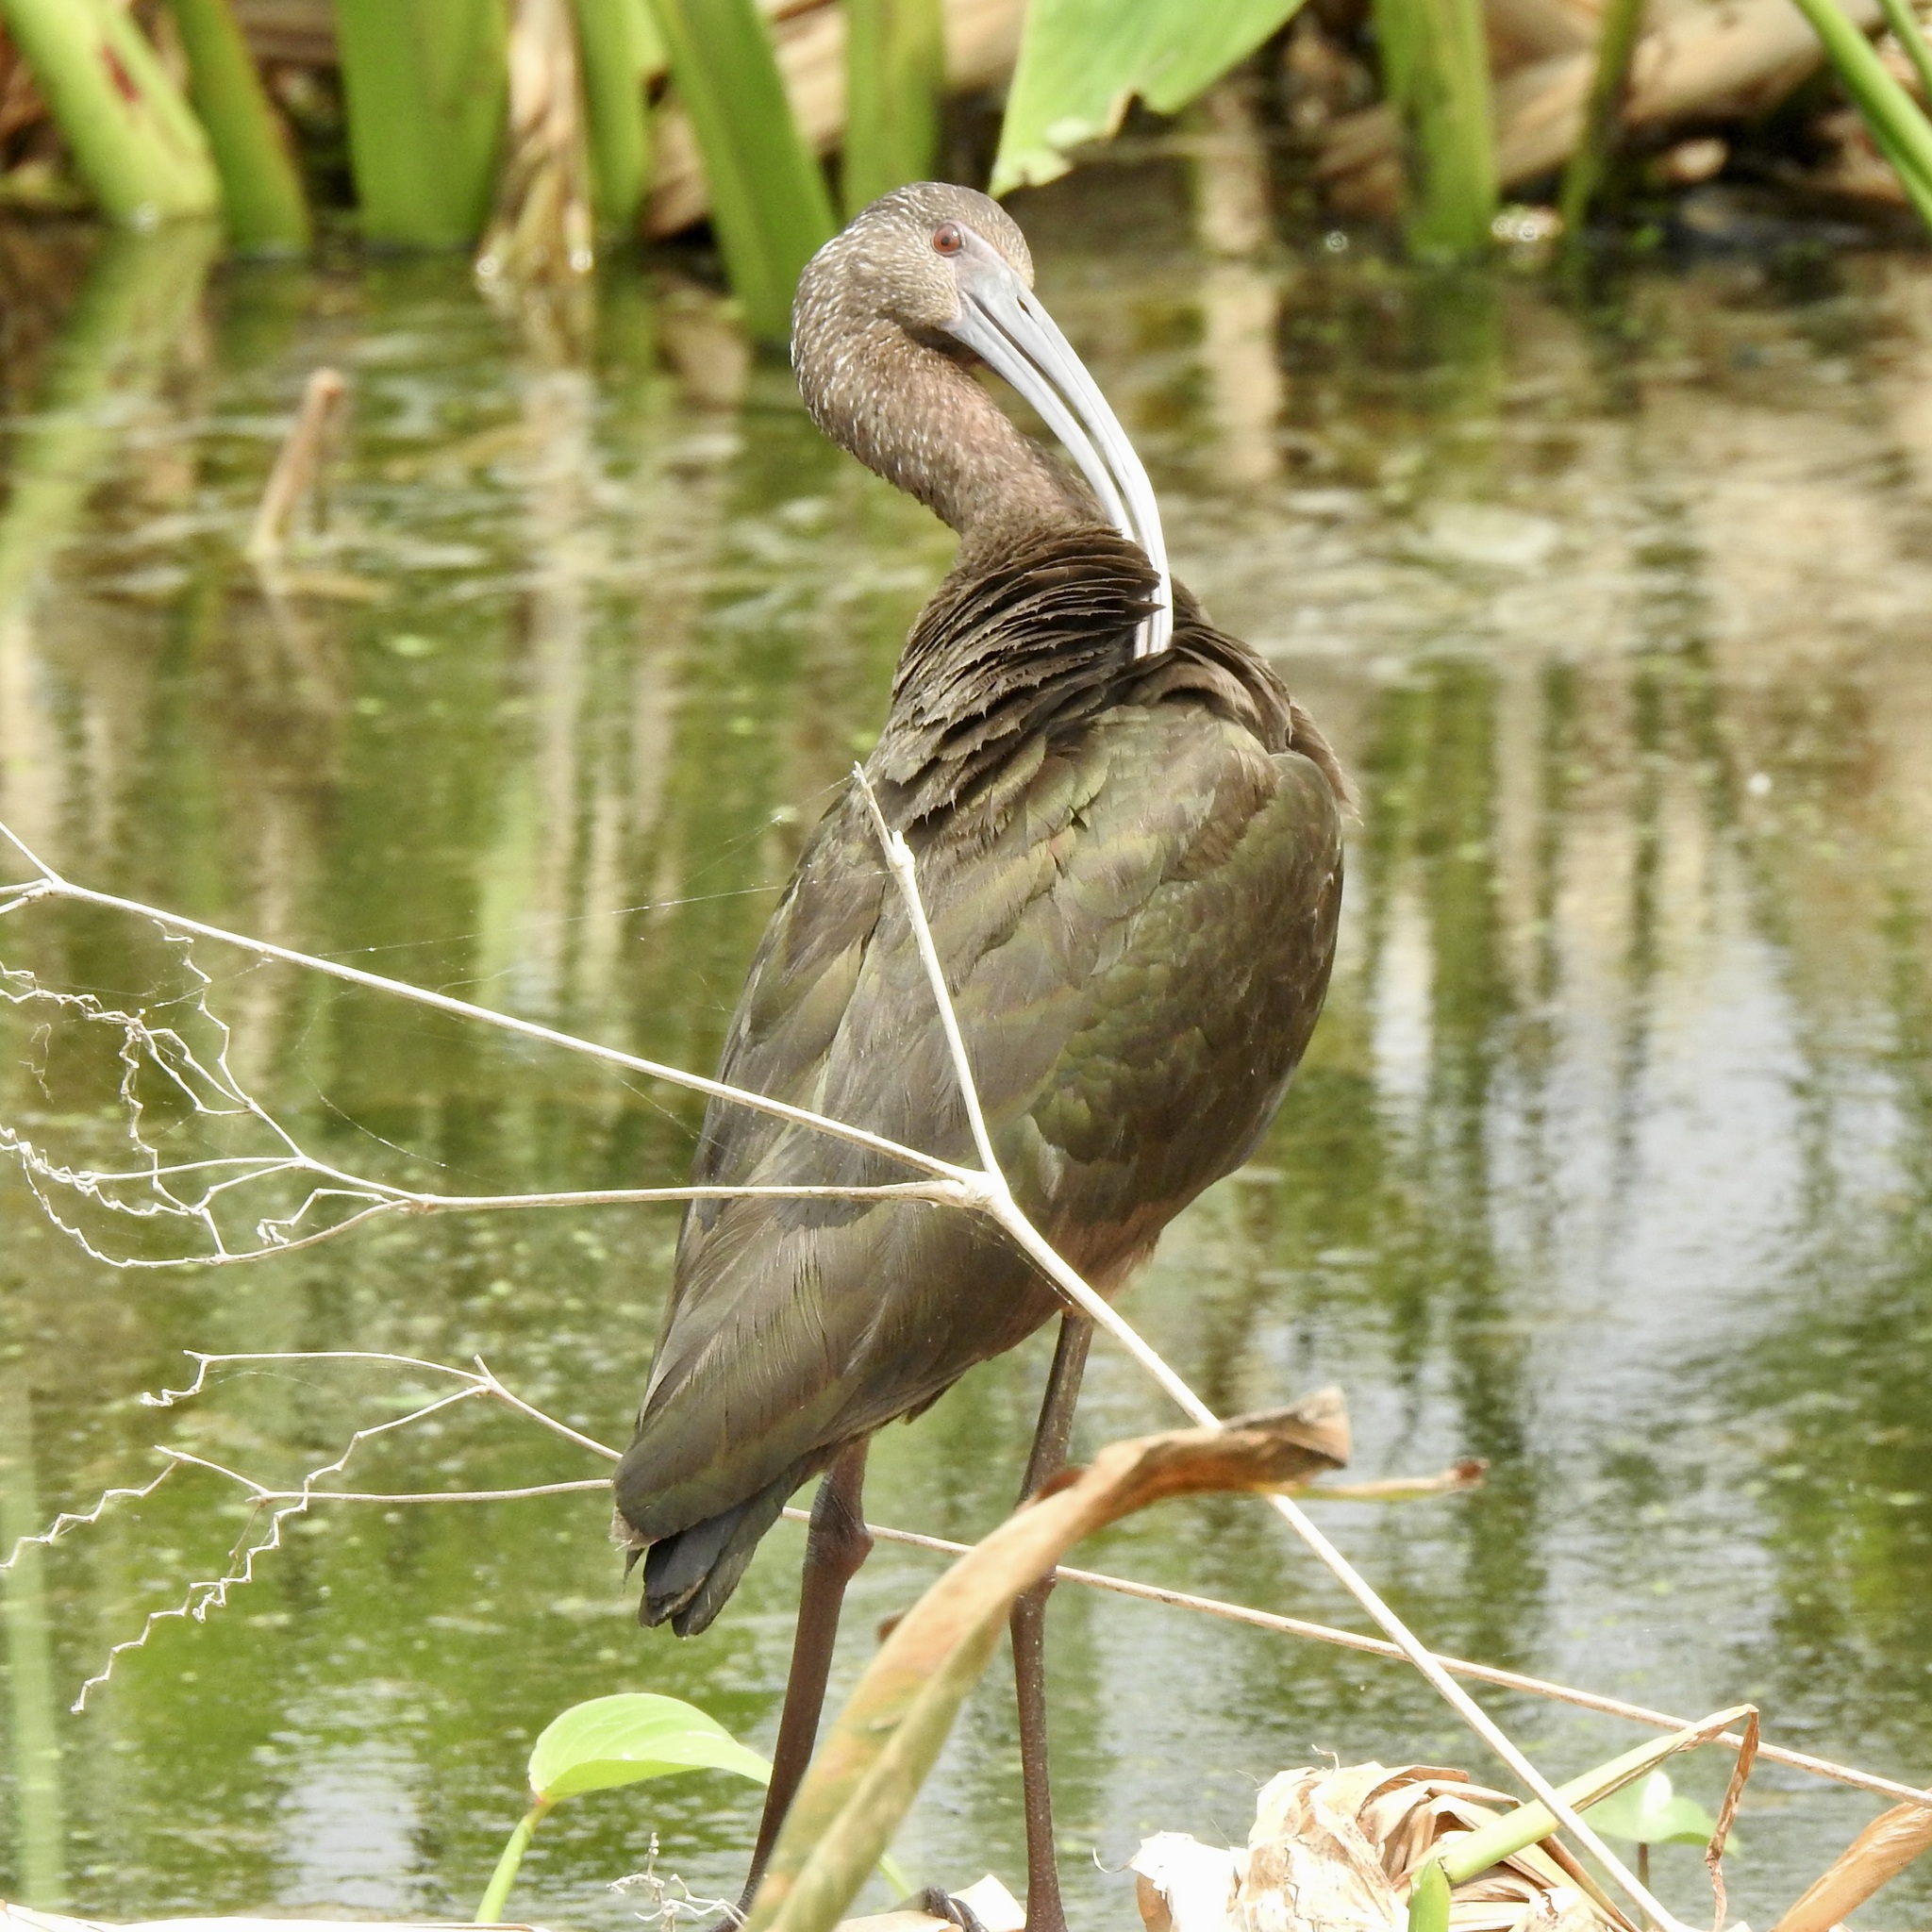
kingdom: Animalia
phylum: Chordata
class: Aves
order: Pelecaniformes
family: Threskiornithidae
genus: Plegadis
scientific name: Plegadis chihi
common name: White-faced ibis
